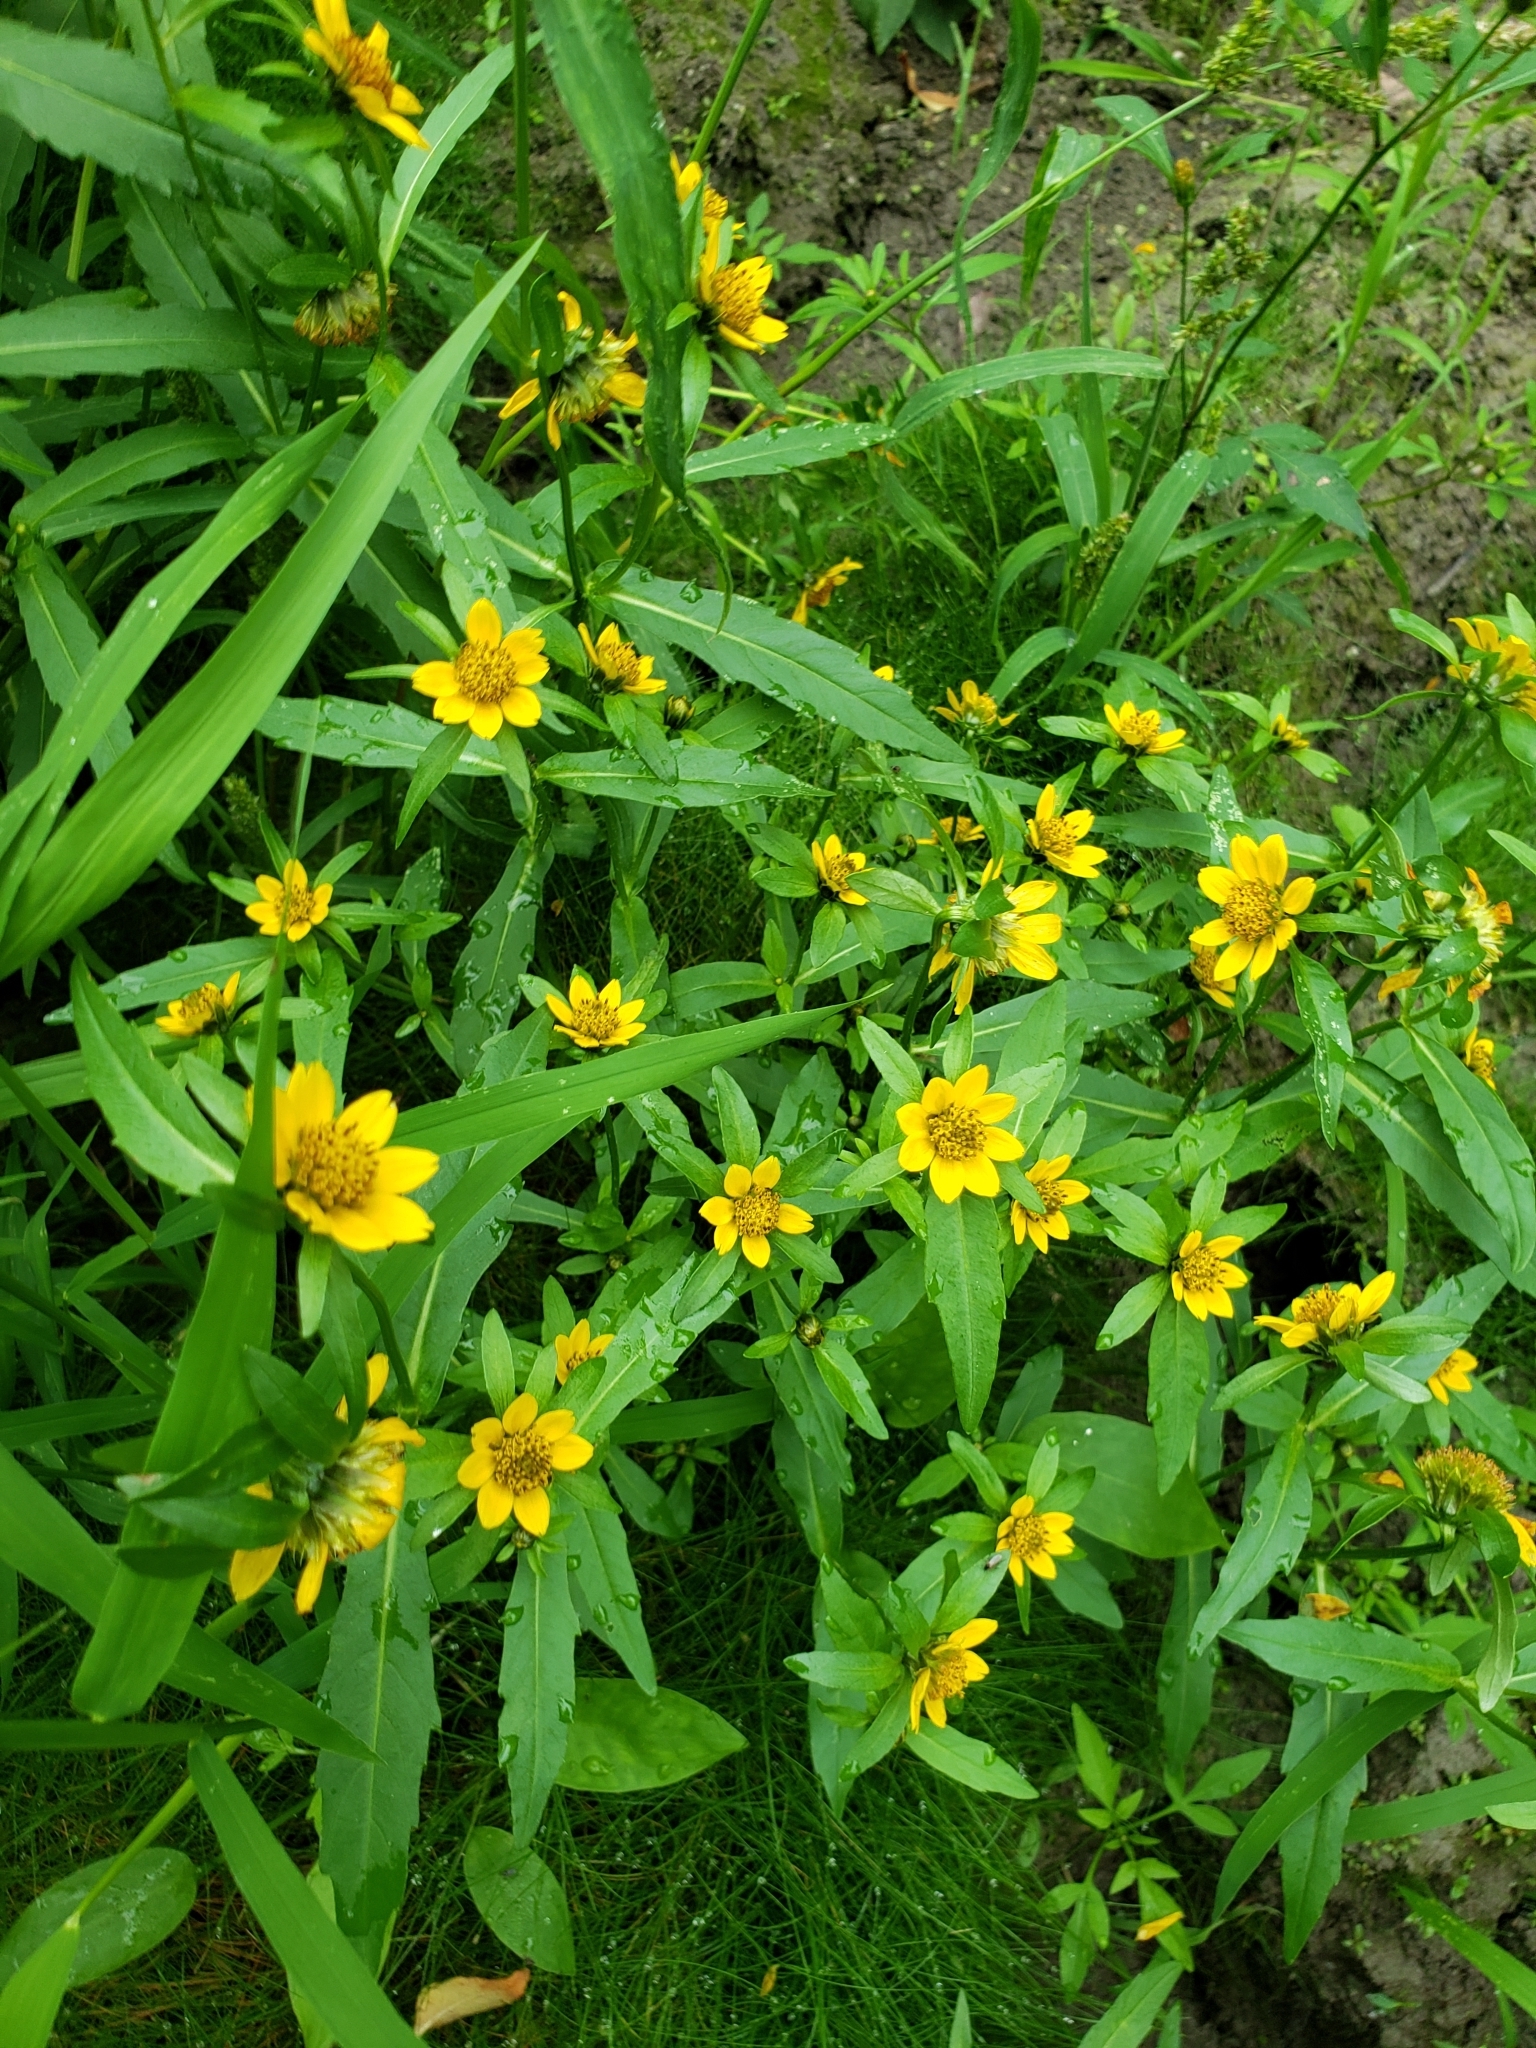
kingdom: Plantae
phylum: Tracheophyta
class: Magnoliopsida
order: Asterales
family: Asteraceae
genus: Bidens
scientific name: Bidens cernua
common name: Nodding bur-marigold
